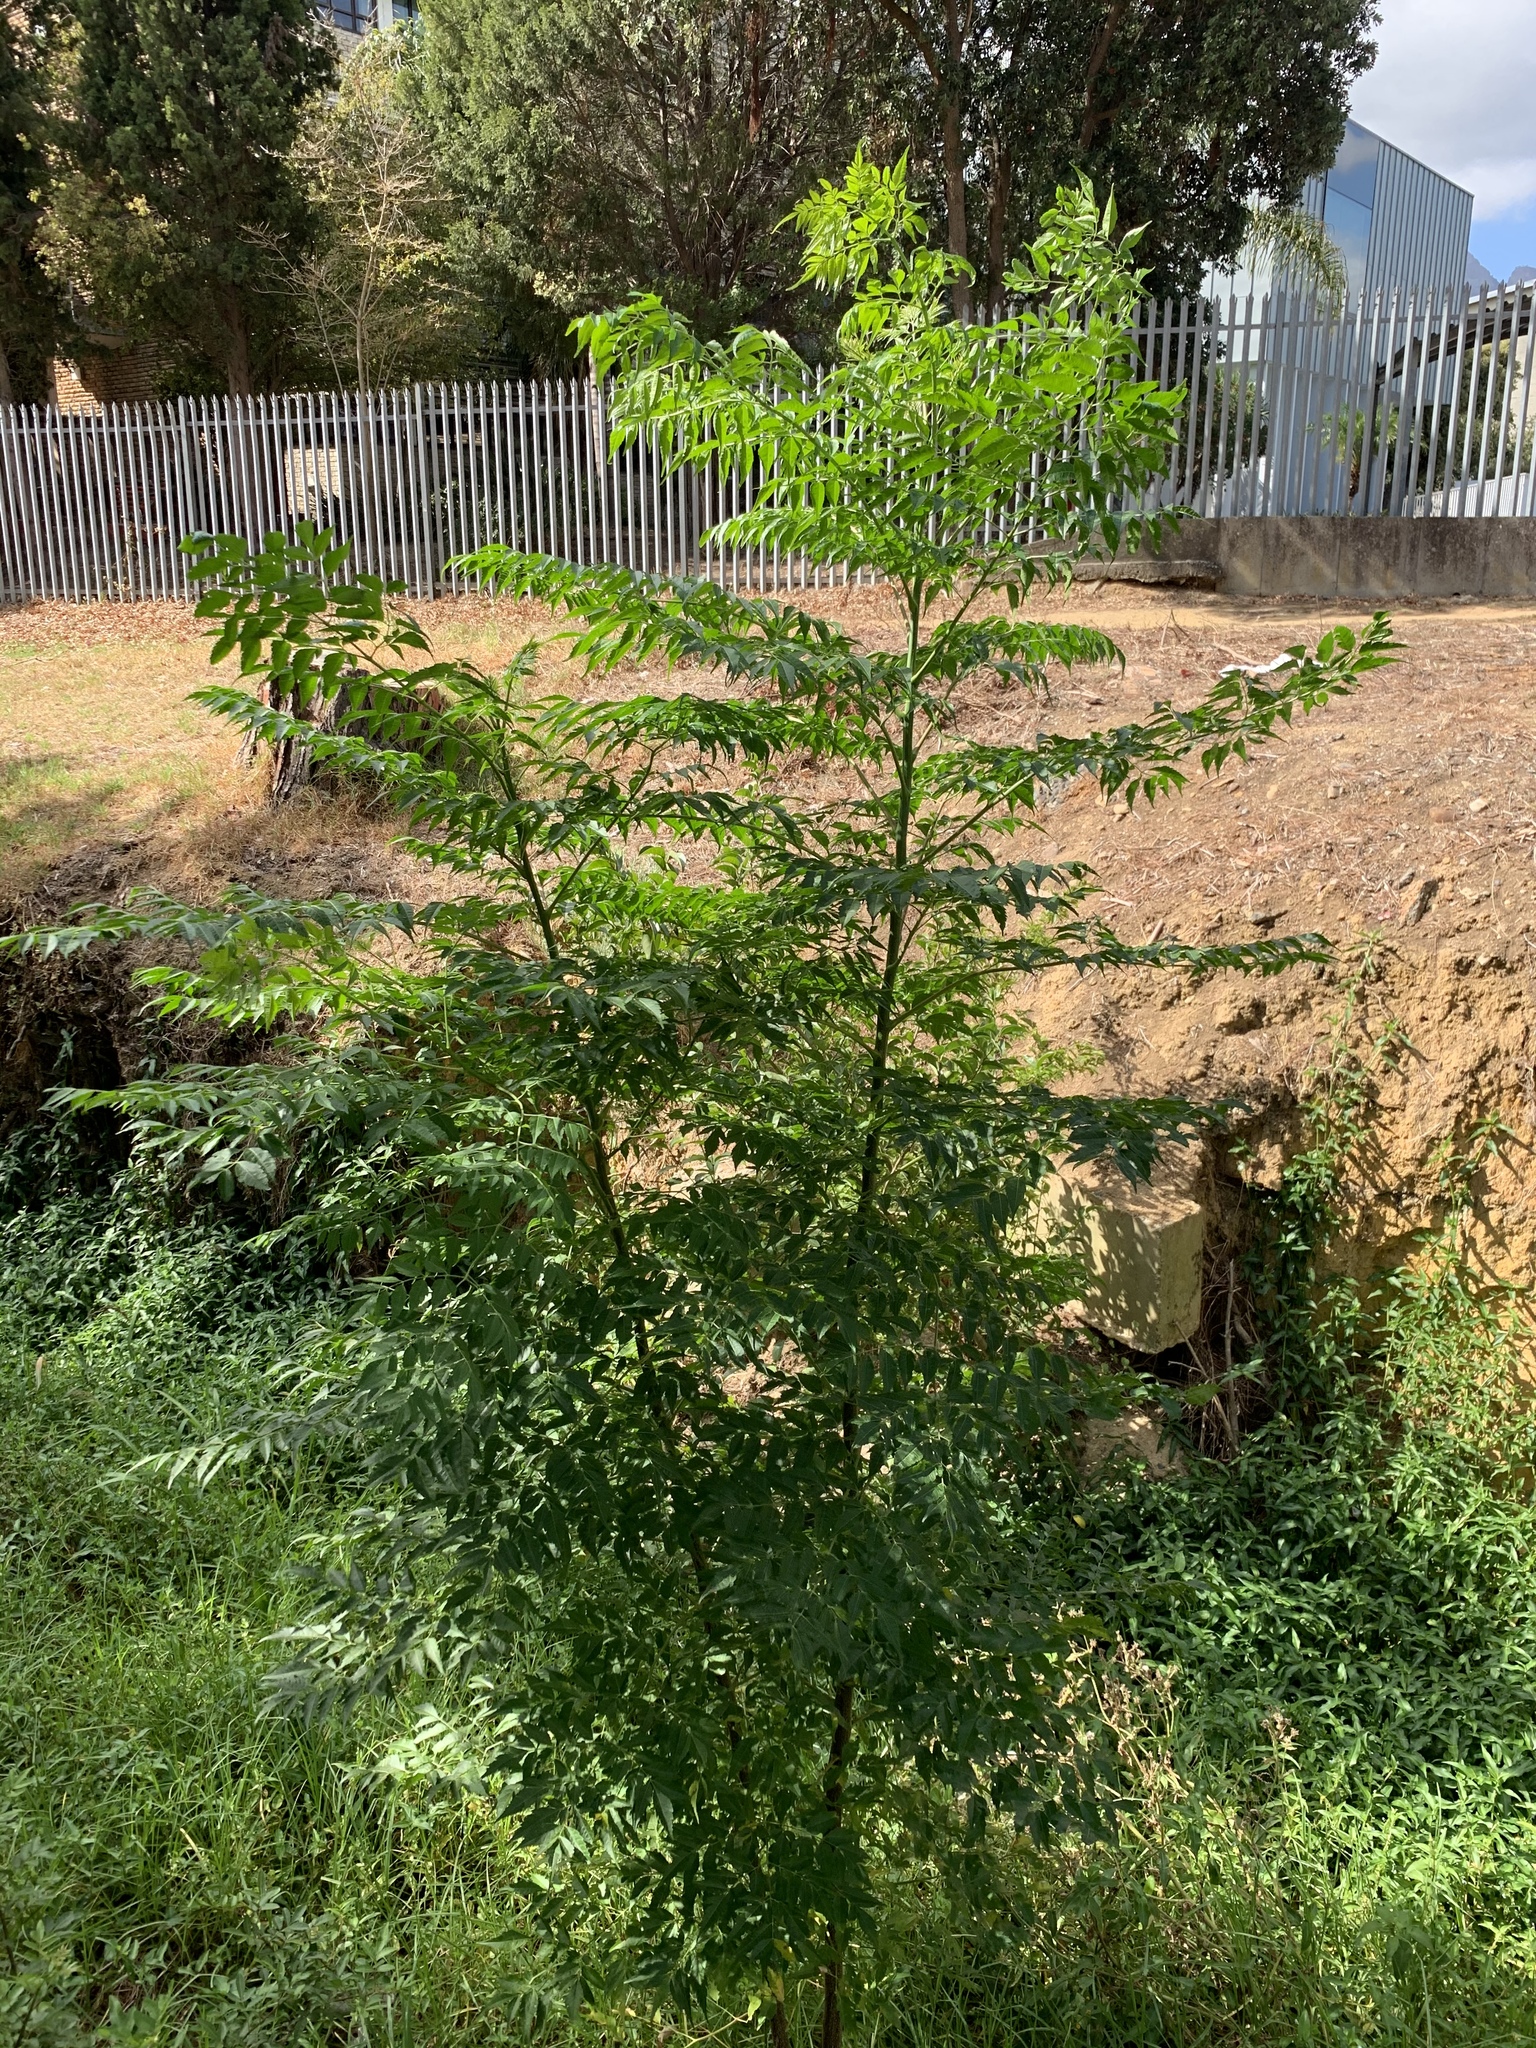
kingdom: Plantae
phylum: Tracheophyta
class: Magnoliopsida
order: Sapindales
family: Meliaceae
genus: Melia
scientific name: Melia azedarach
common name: Chinaberrytree
